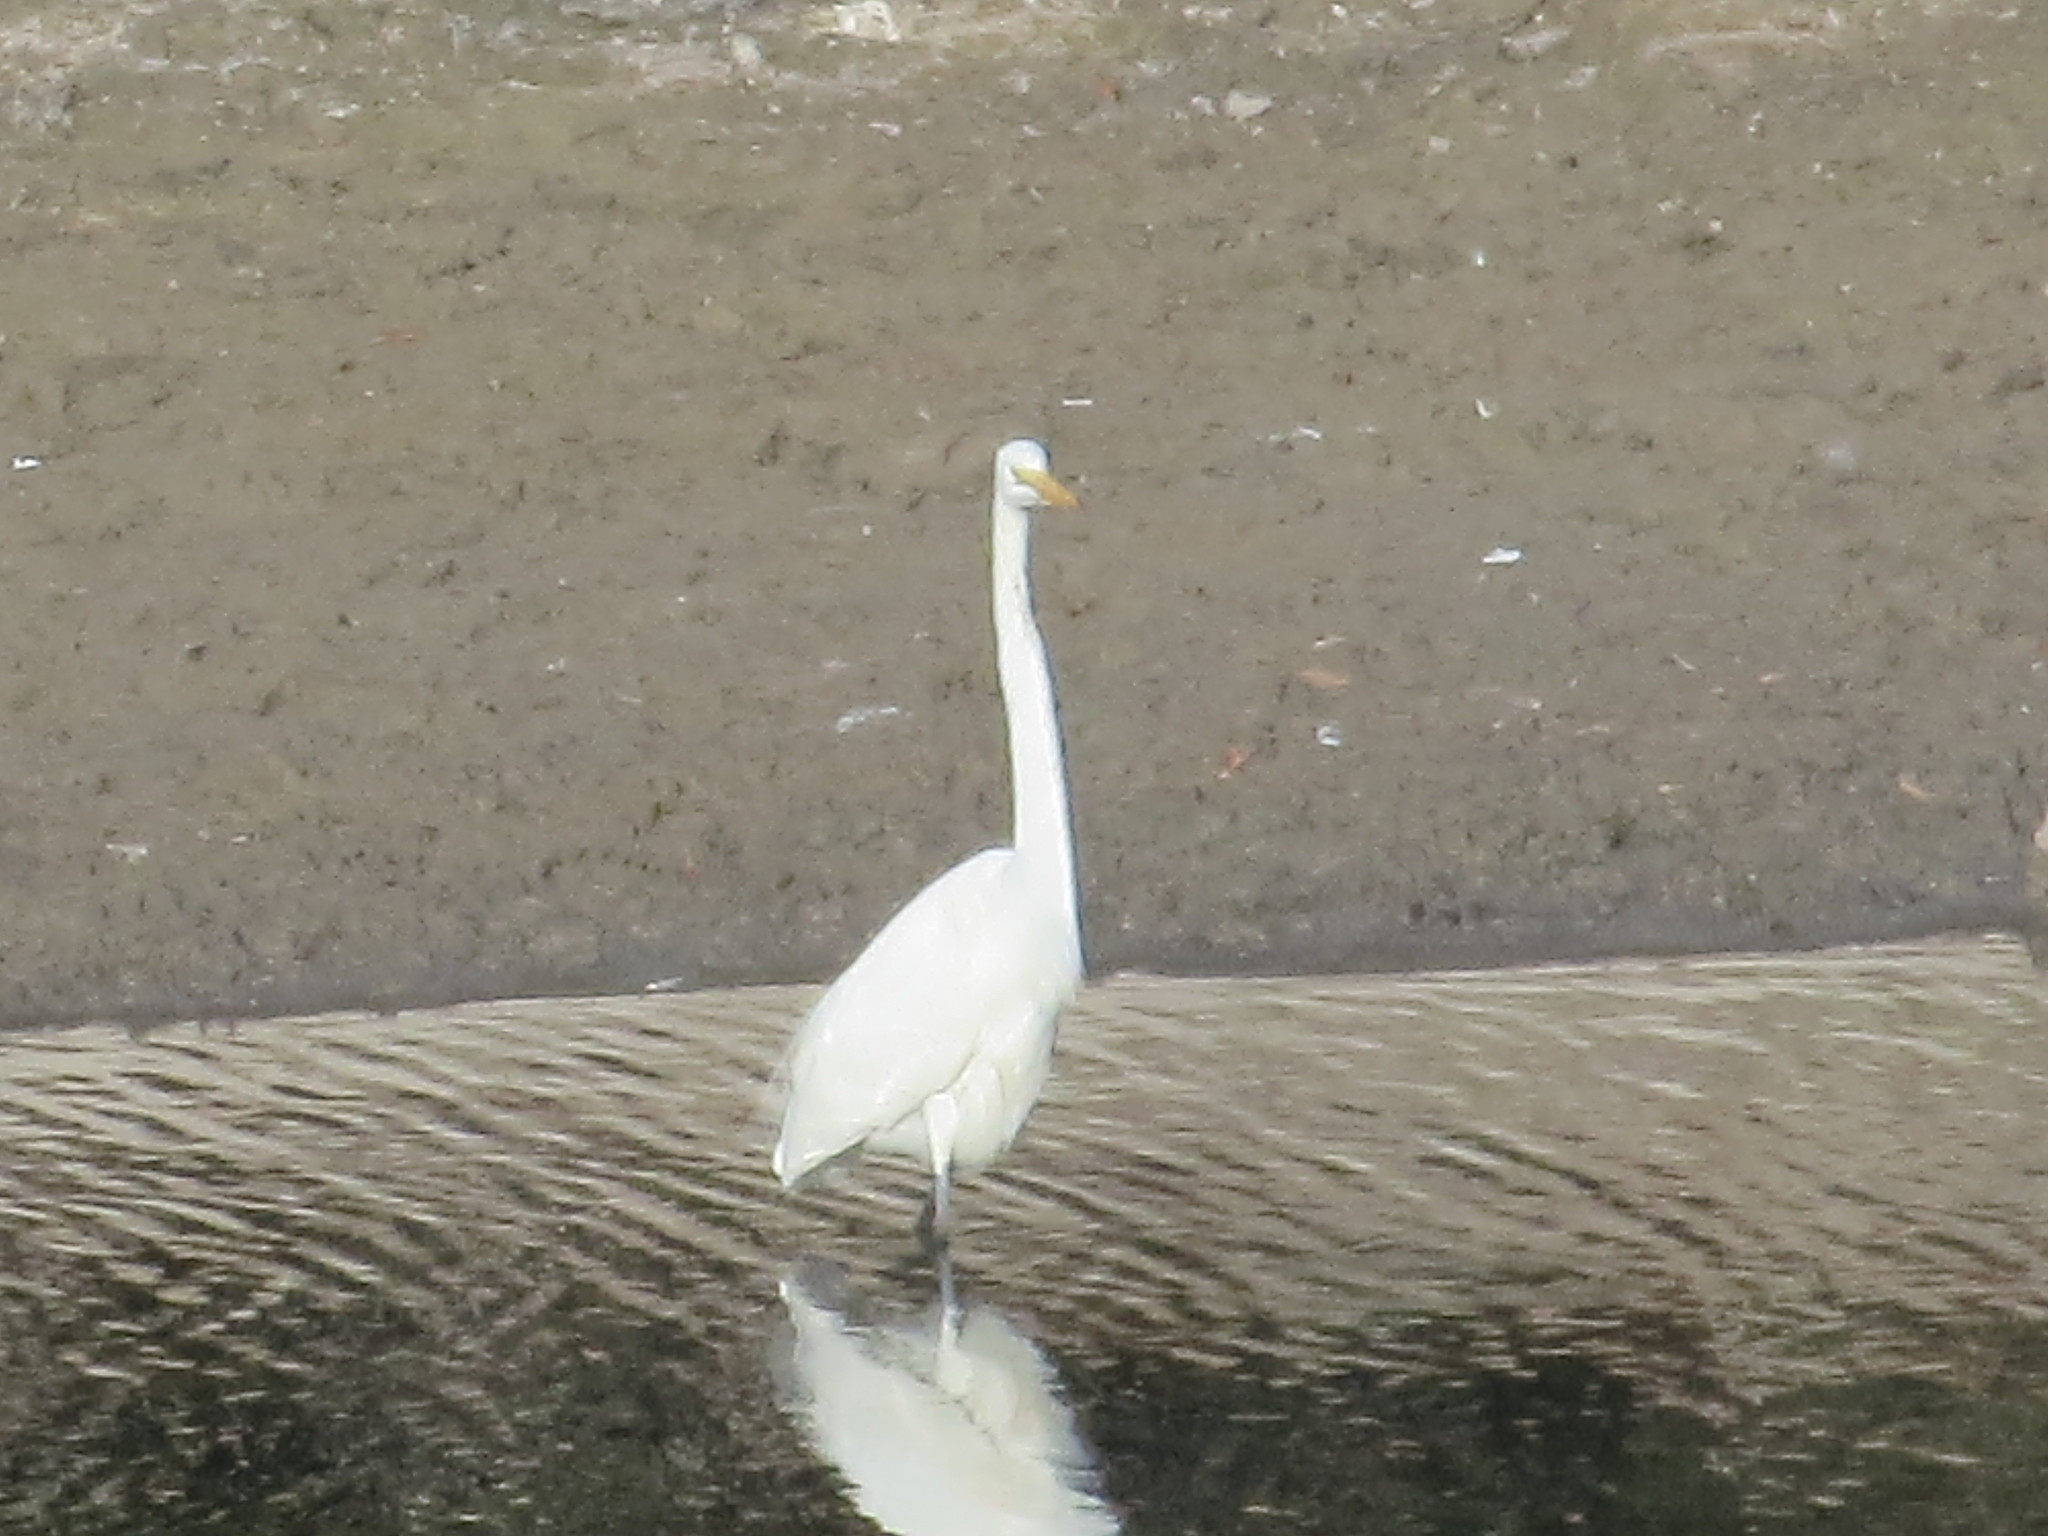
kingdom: Animalia
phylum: Chordata
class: Aves
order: Pelecaniformes
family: Ardeidae
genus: Ardea
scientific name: Ardea alba
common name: Great egret
